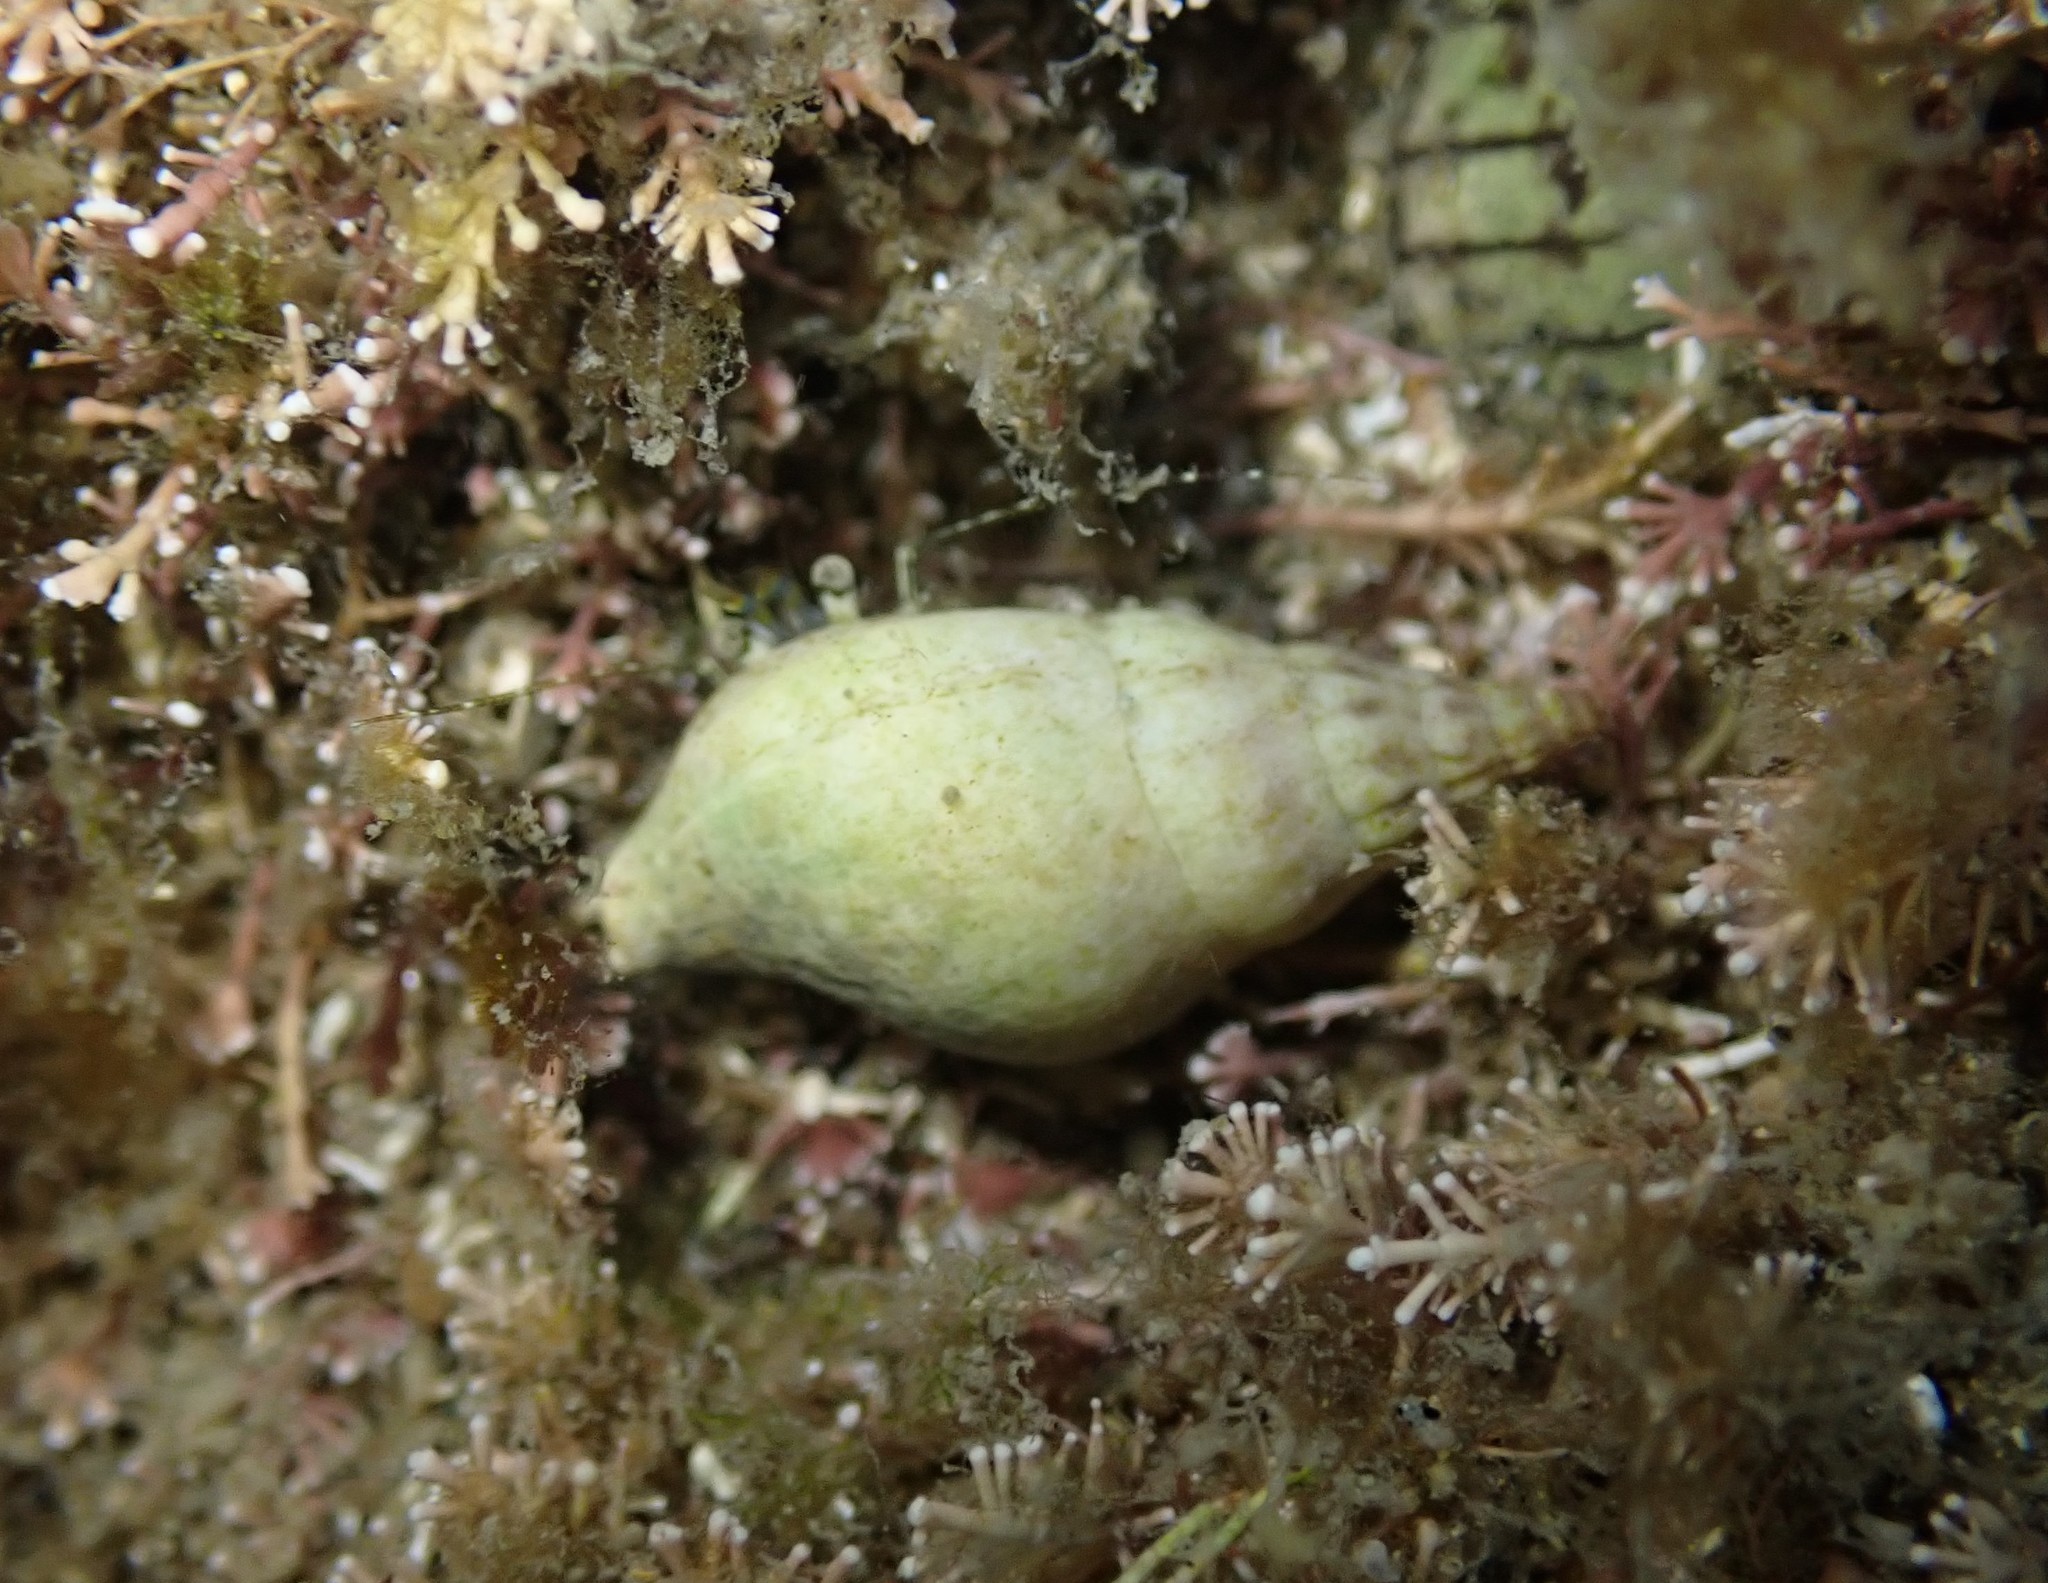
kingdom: Animalia
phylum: Mollusca
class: Gastropoda
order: Neogastropoda
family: Tudiclidae
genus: Buccinulum
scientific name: Buccinulum vittatum
